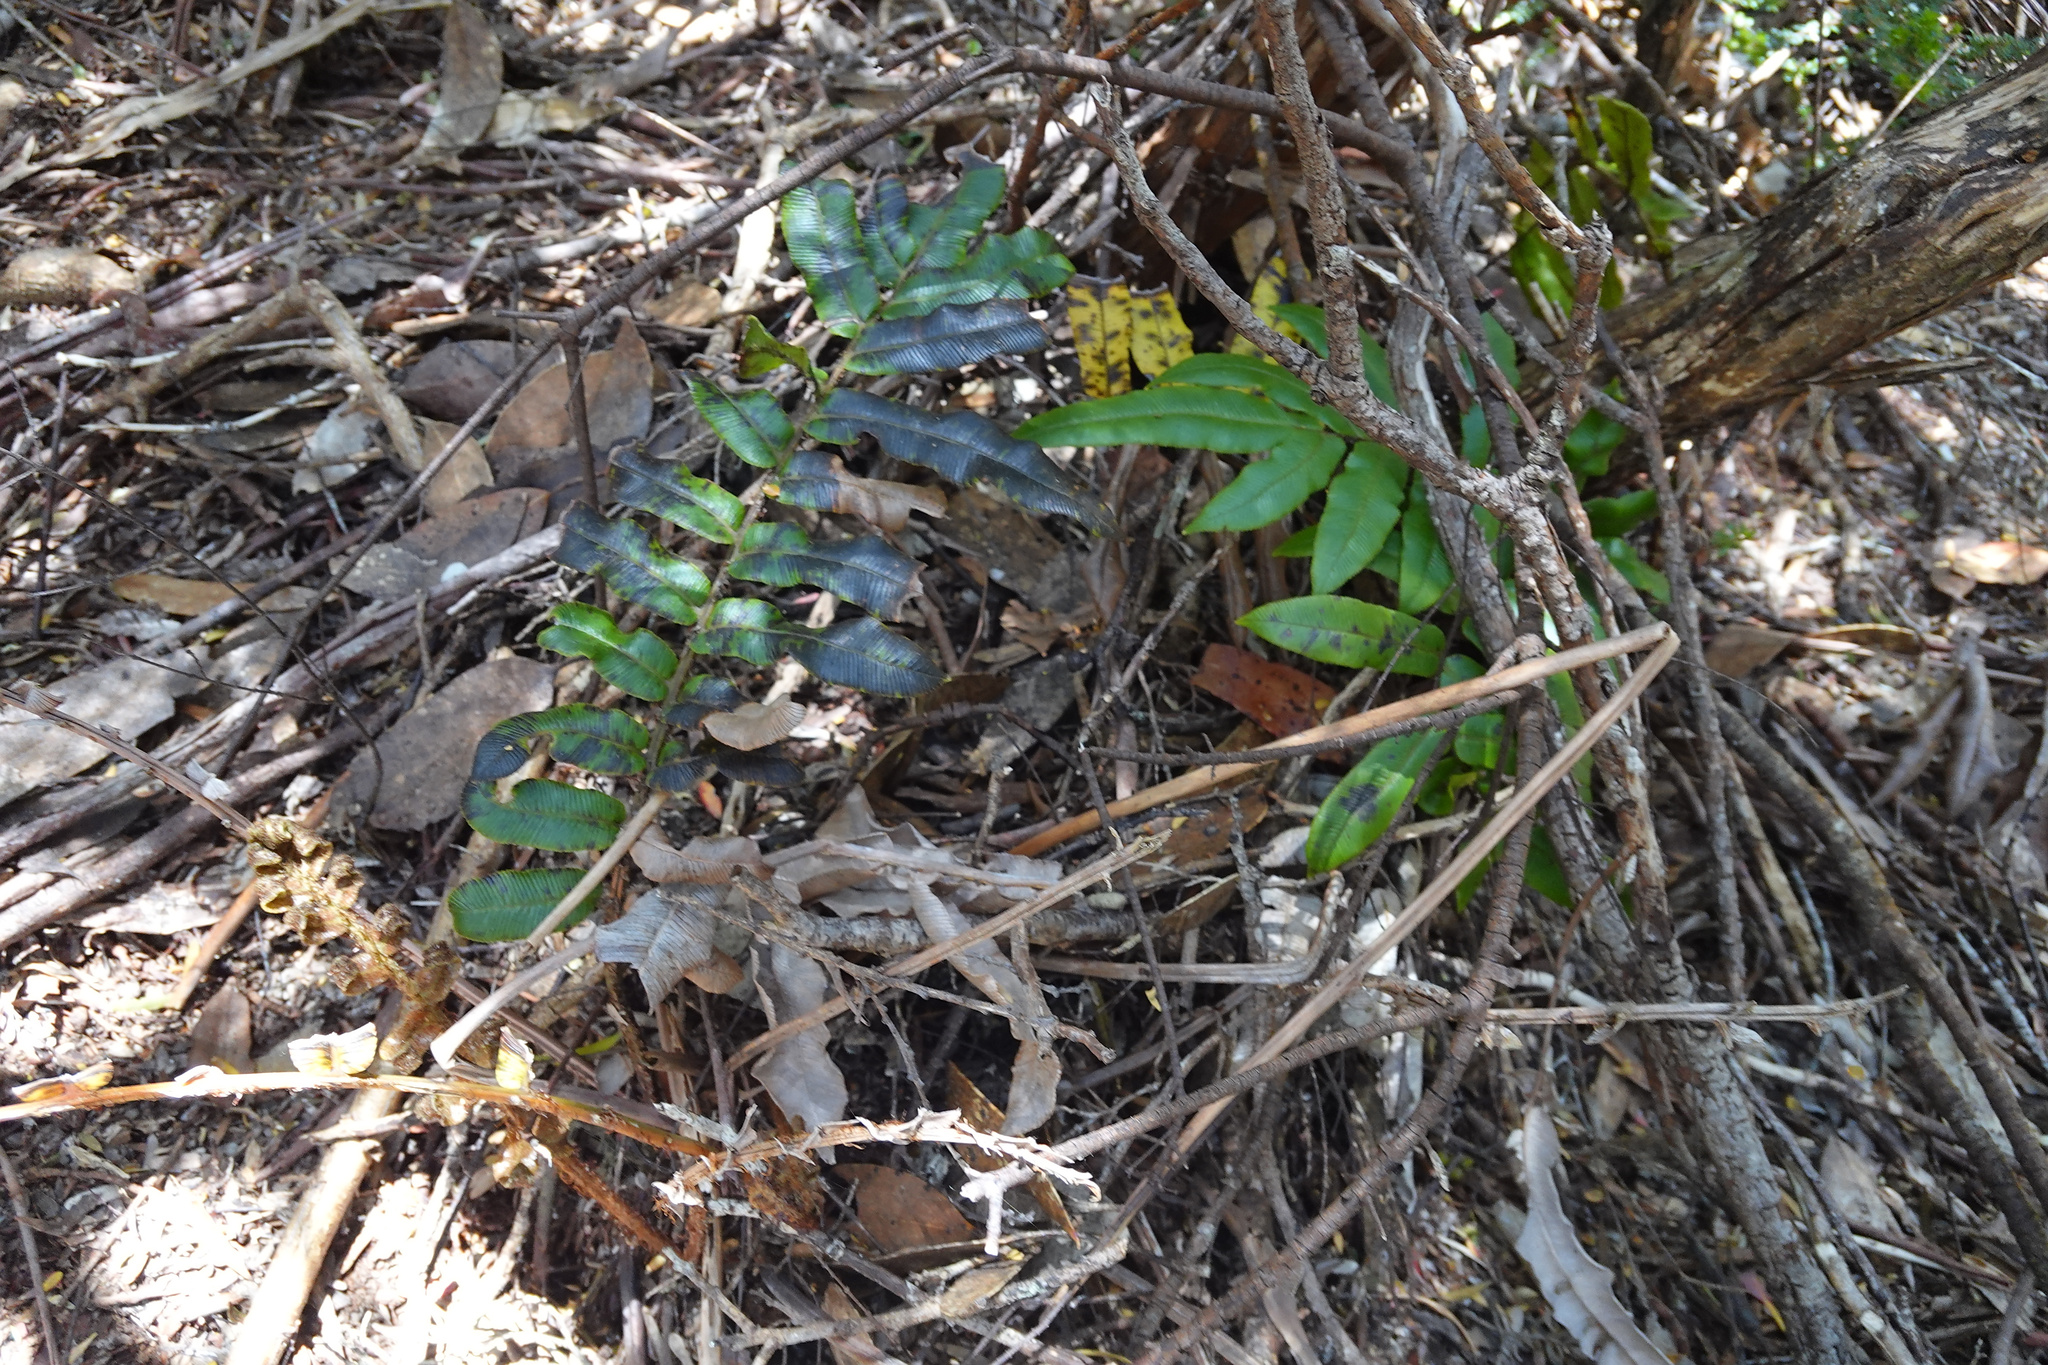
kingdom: Plantae
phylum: Tracheophyta
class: Polypodiopsida
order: Polypodiales
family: Blechnaceae
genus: Parablechnum
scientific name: Parablechnum wattsii
